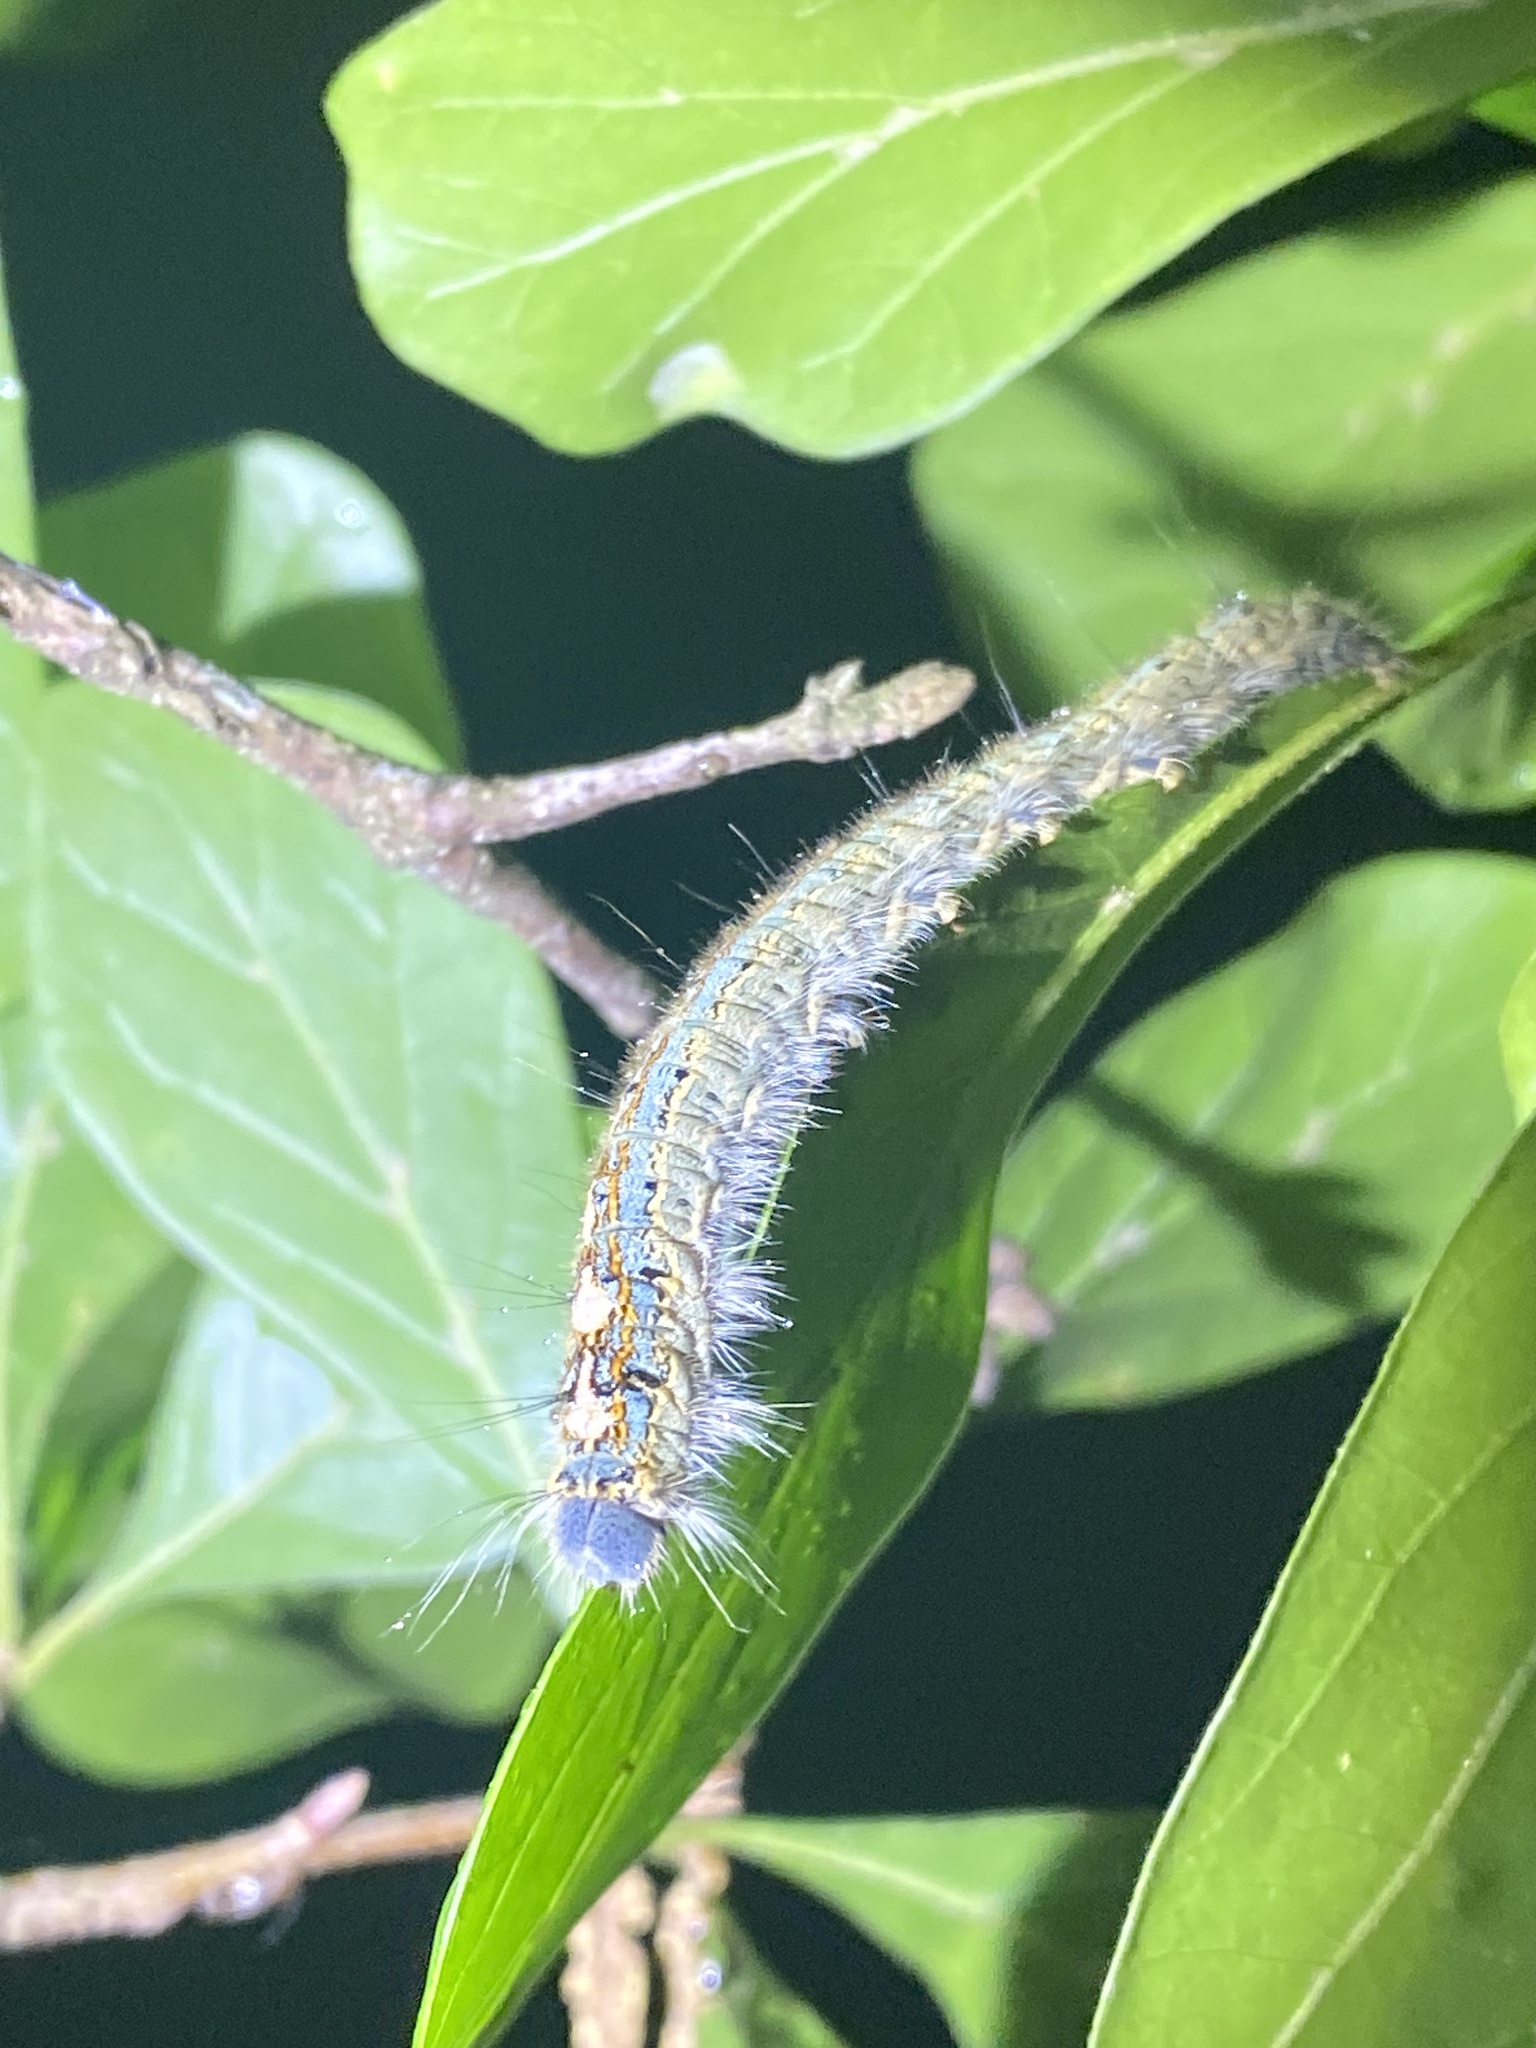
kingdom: Animalia
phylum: Arthropoda
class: Insecta
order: Lepidoptera
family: Lasiocampidae
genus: Malacosoma
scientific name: Malacosoma disstria
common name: Forest tent caterpillar
